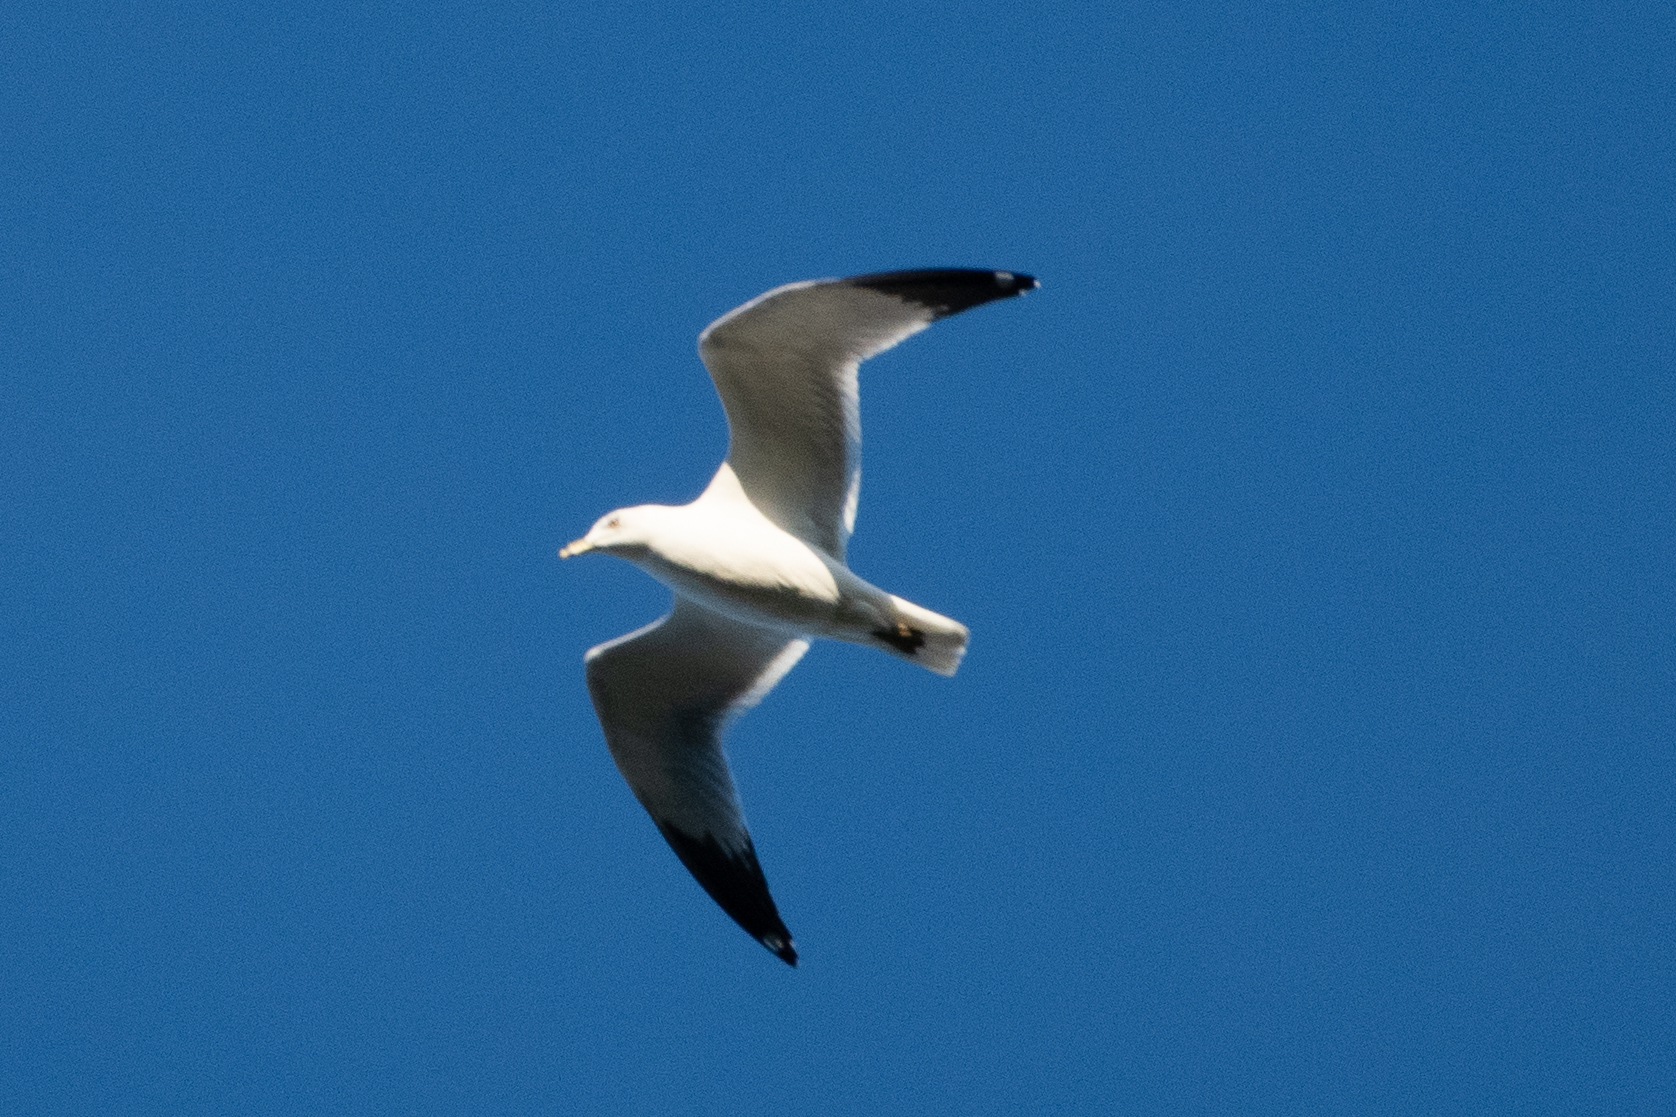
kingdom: Animalia
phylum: Chordata
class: Aves
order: Charadriiformes
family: Laridae
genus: Larus
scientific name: Larus delawarensis
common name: Ring-billed gull
